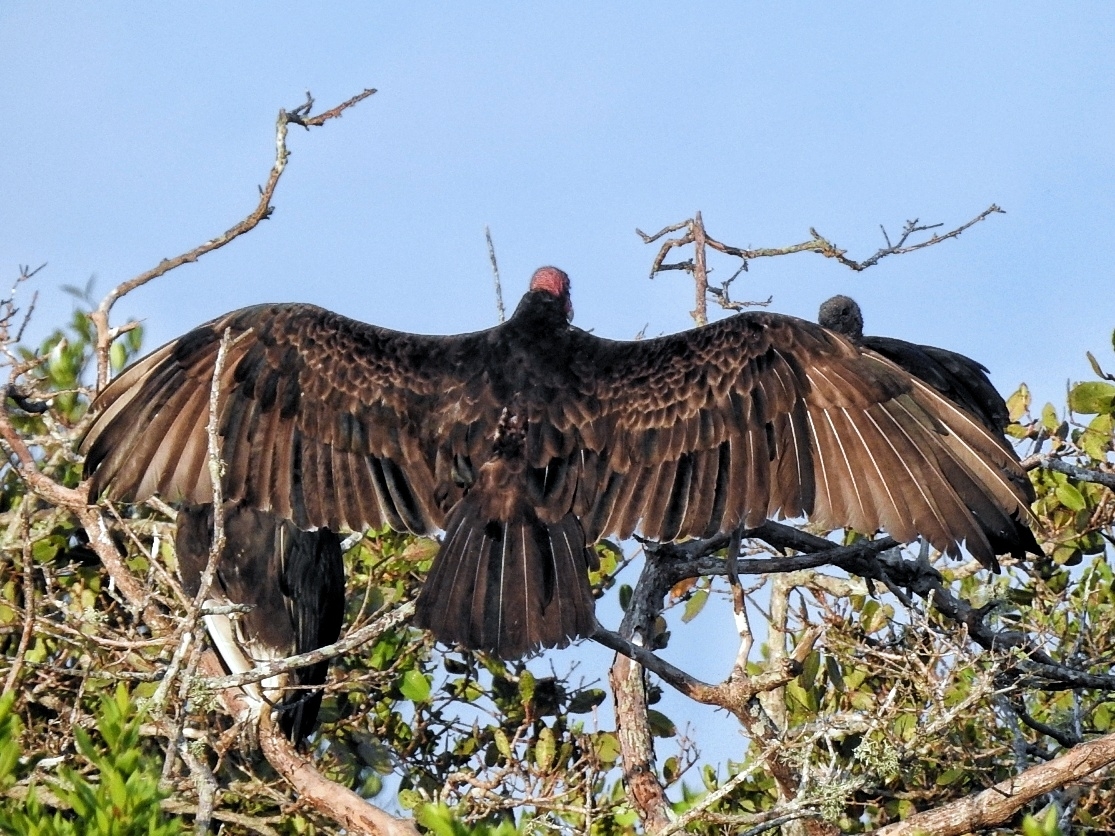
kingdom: Animalia
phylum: Chordata
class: Aves
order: Accipitriformes
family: Cathartidae
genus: Cathartes
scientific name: Cathartes aura
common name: Turkey vulture
